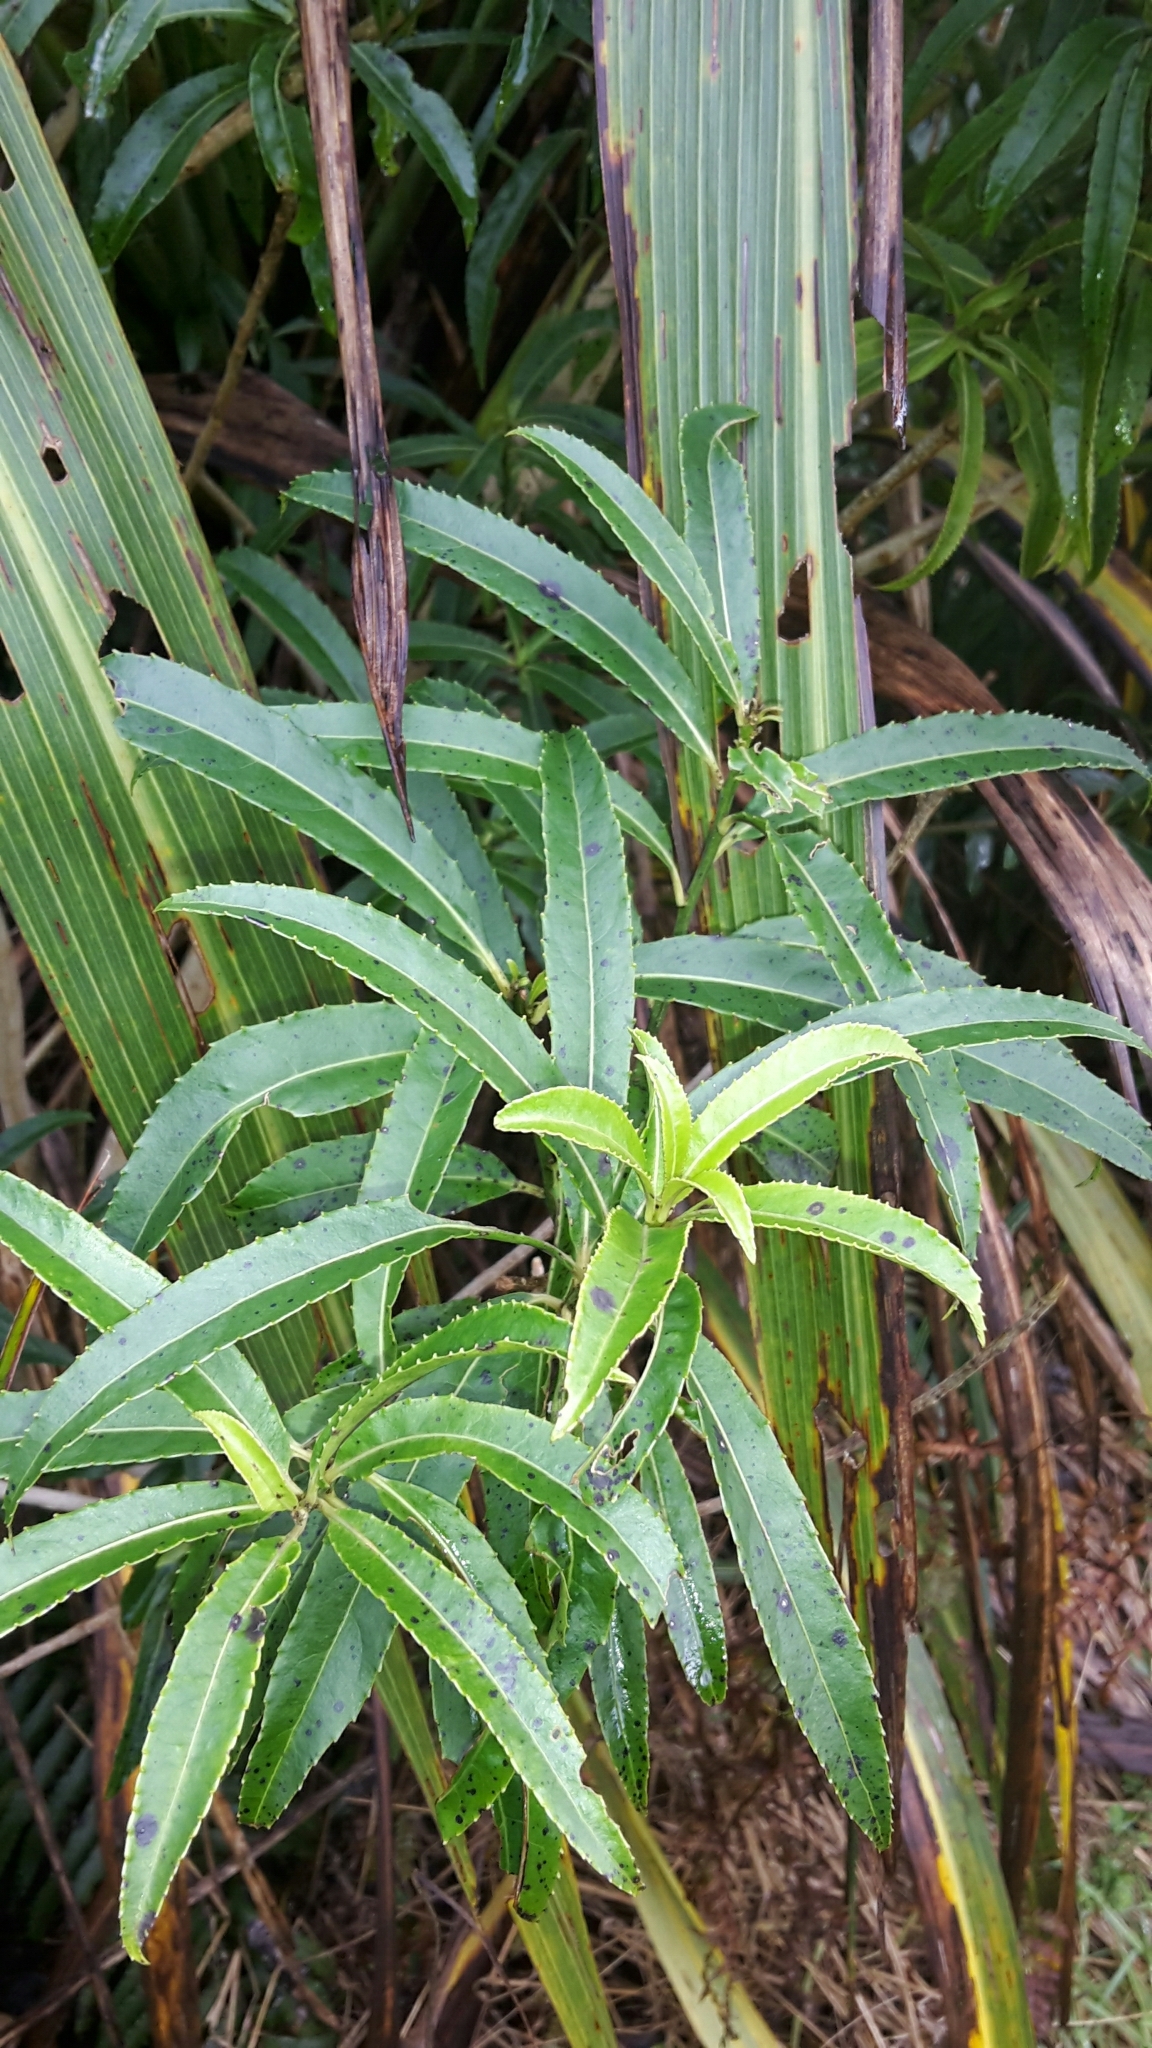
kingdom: Plantae
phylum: Tracheophyta
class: Magnoliopsida
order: Malpighiales
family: Violaceae
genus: Melicytus
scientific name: Melicytus lanceolatus
